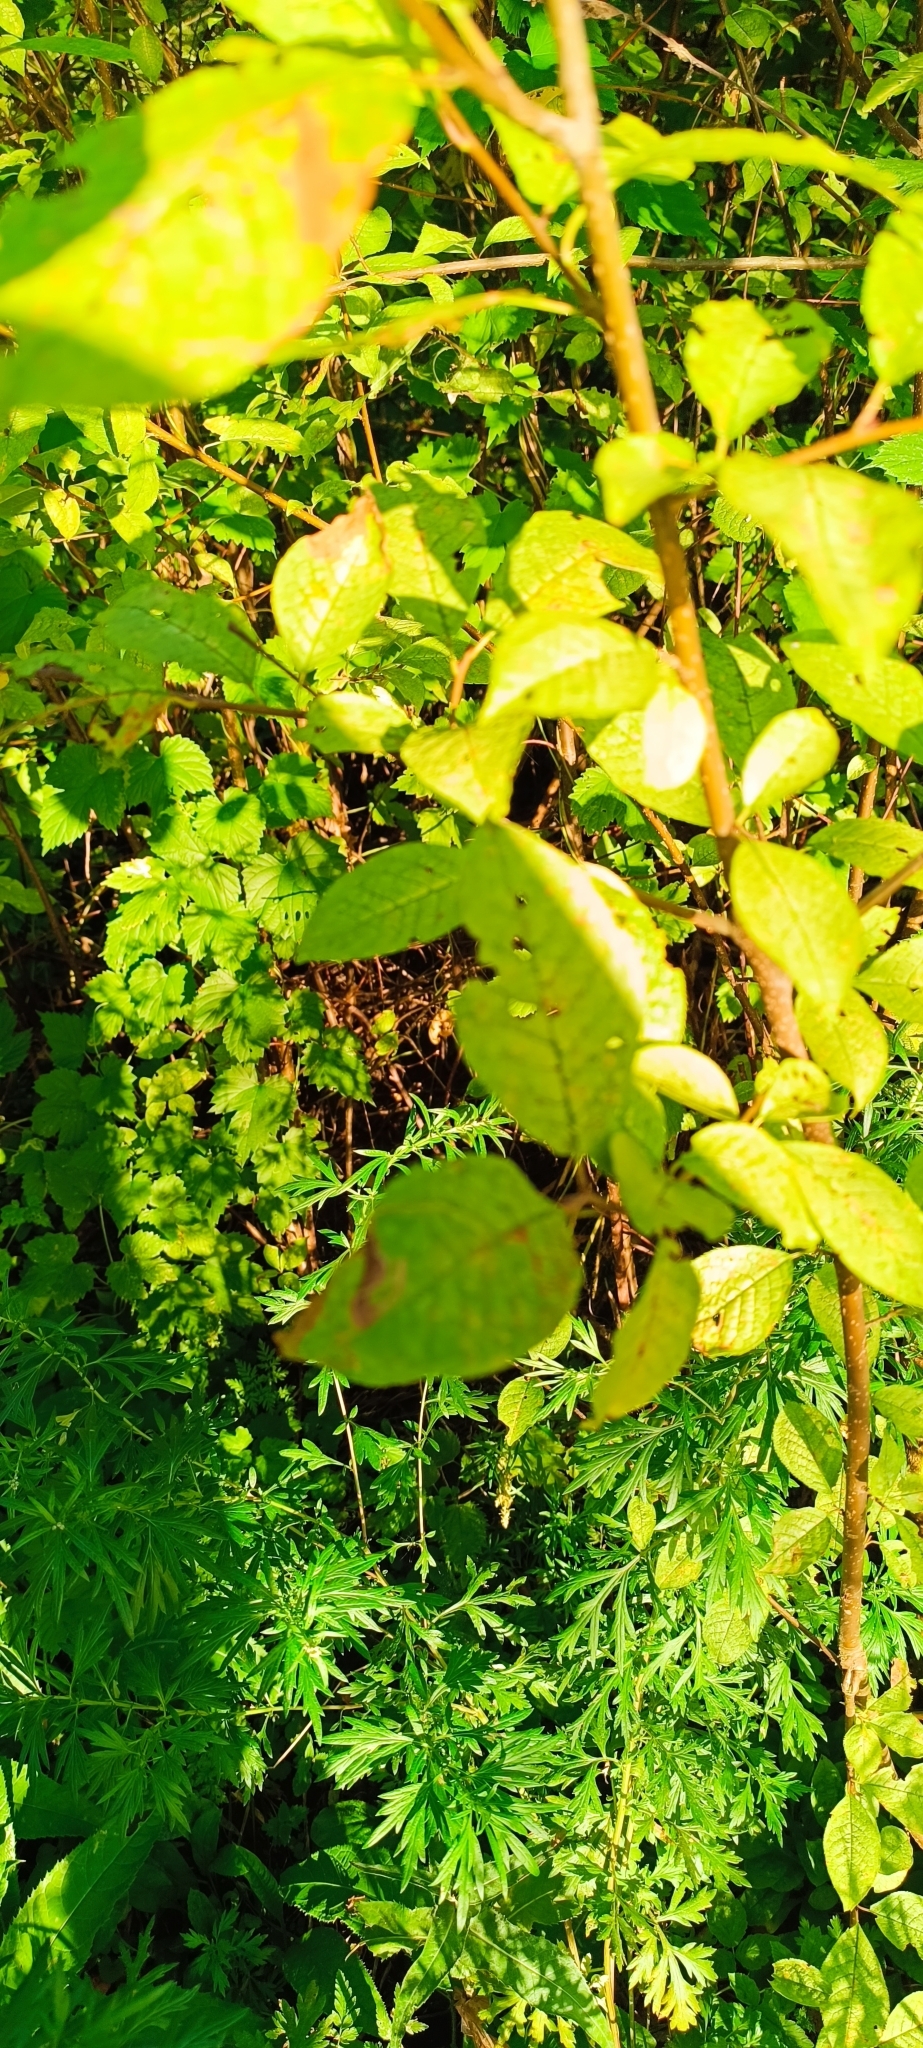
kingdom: Plantae
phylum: Tracheophyta
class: Magnoliopsida
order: Rosales
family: Rosaceae
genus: Prunus
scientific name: Prunus padus
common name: Bird cherry
